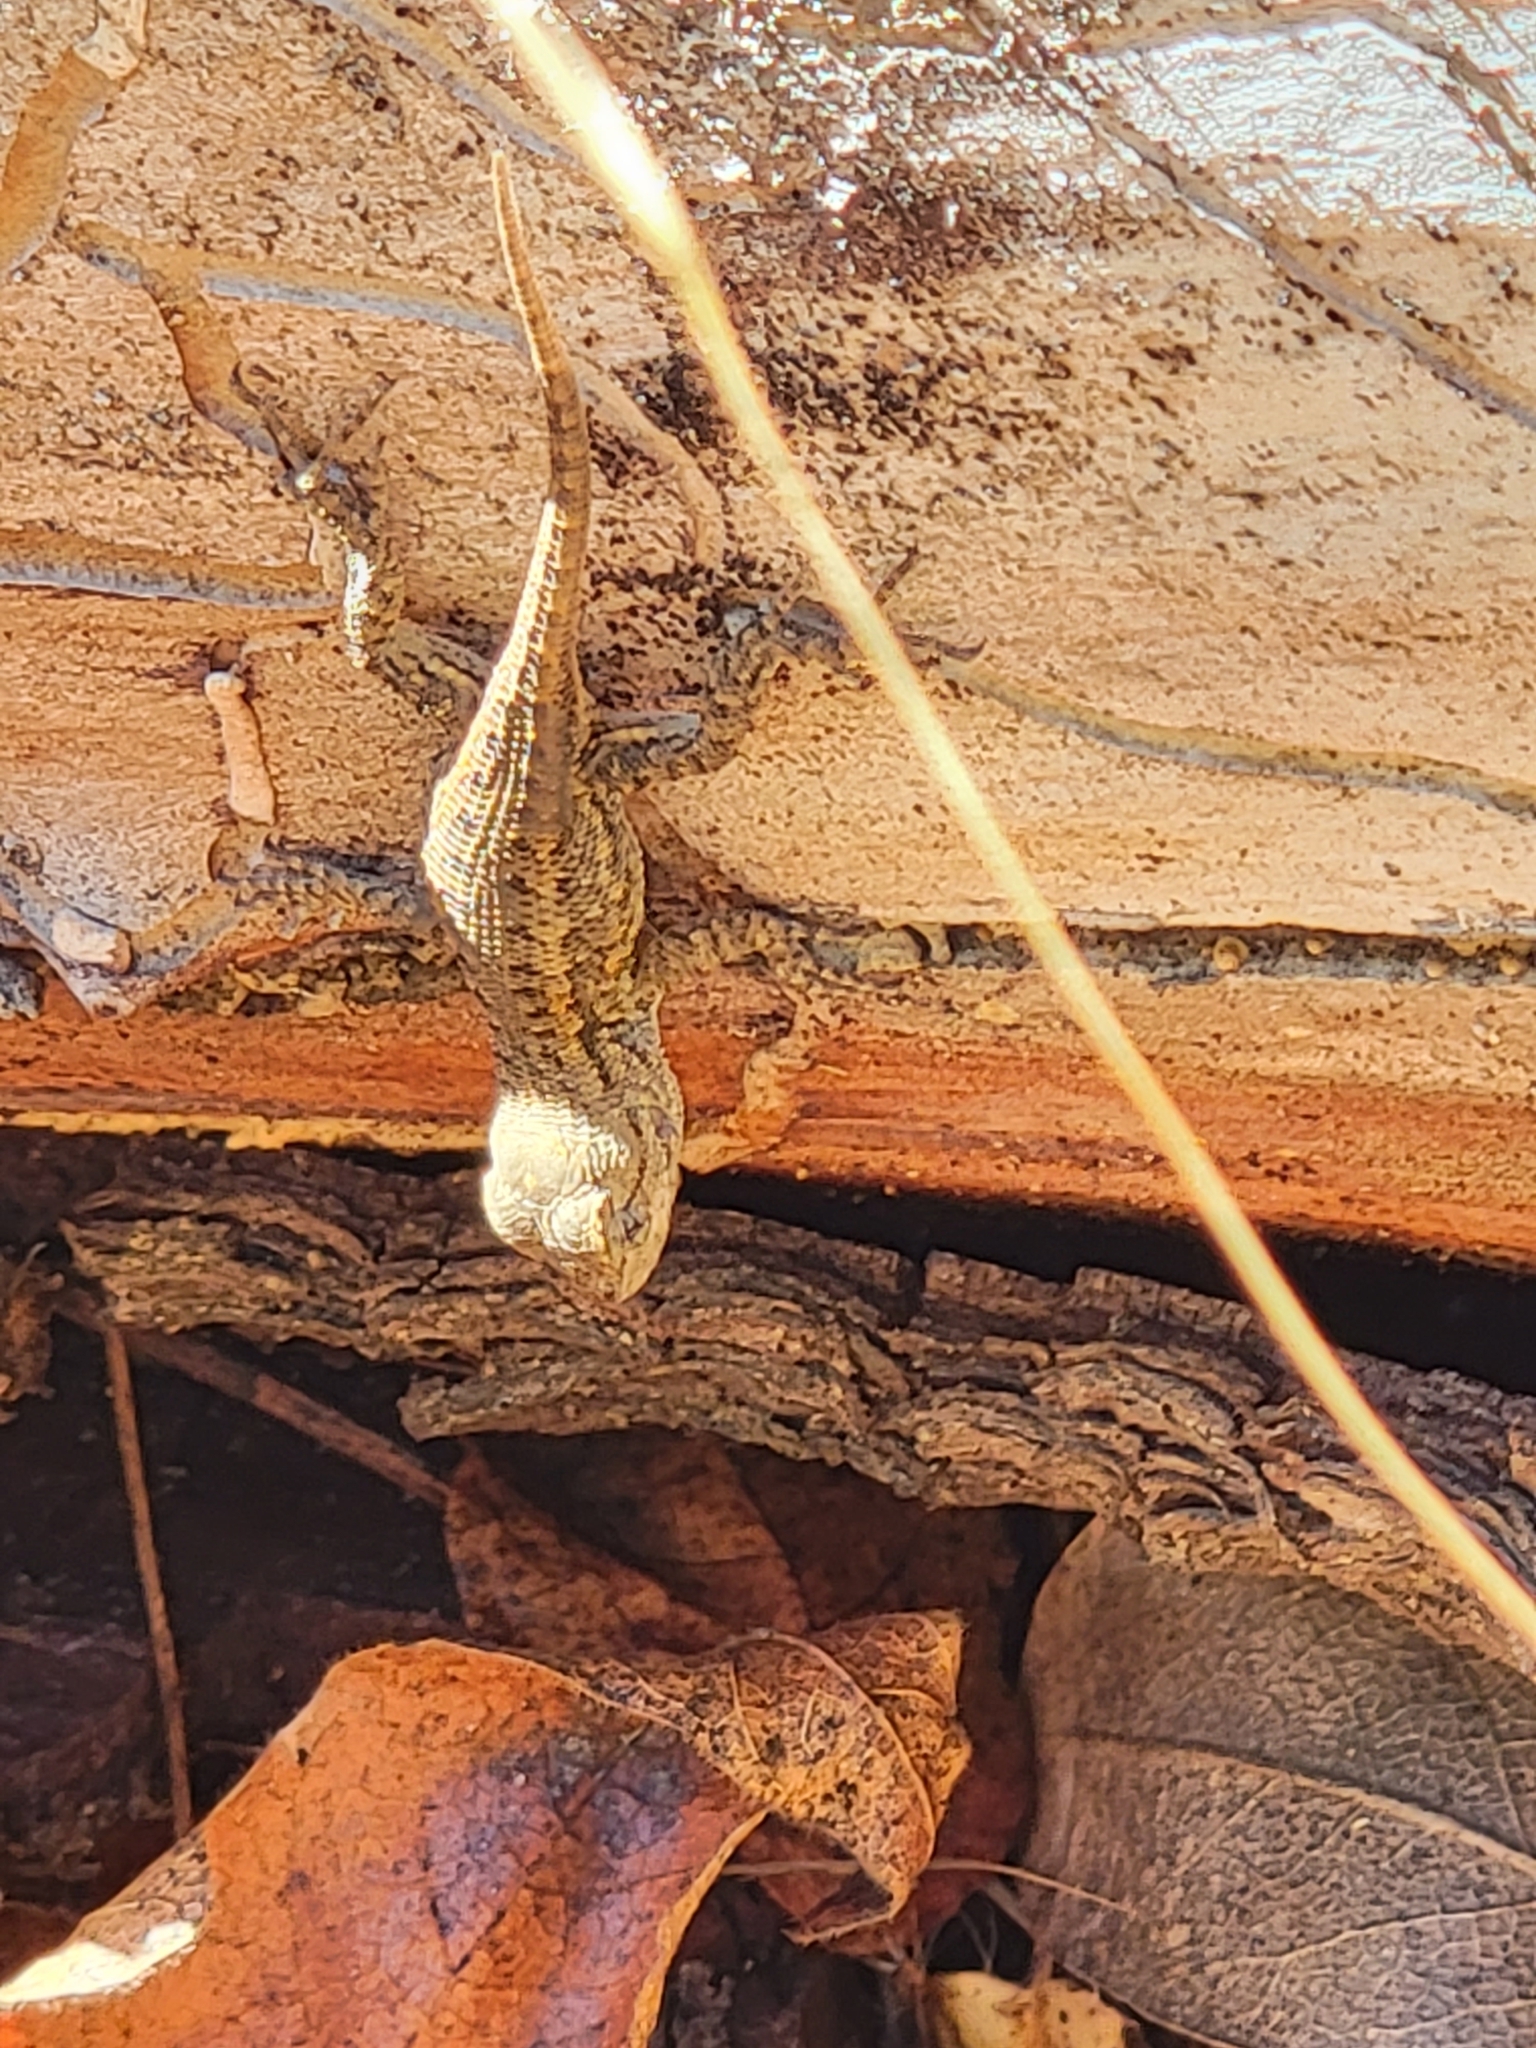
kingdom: Animalia
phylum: Chordata
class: Squamata
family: Phrynosomatidae
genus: Sceloporus
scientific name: Sceloporus occidentalis
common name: Western fence lizard
